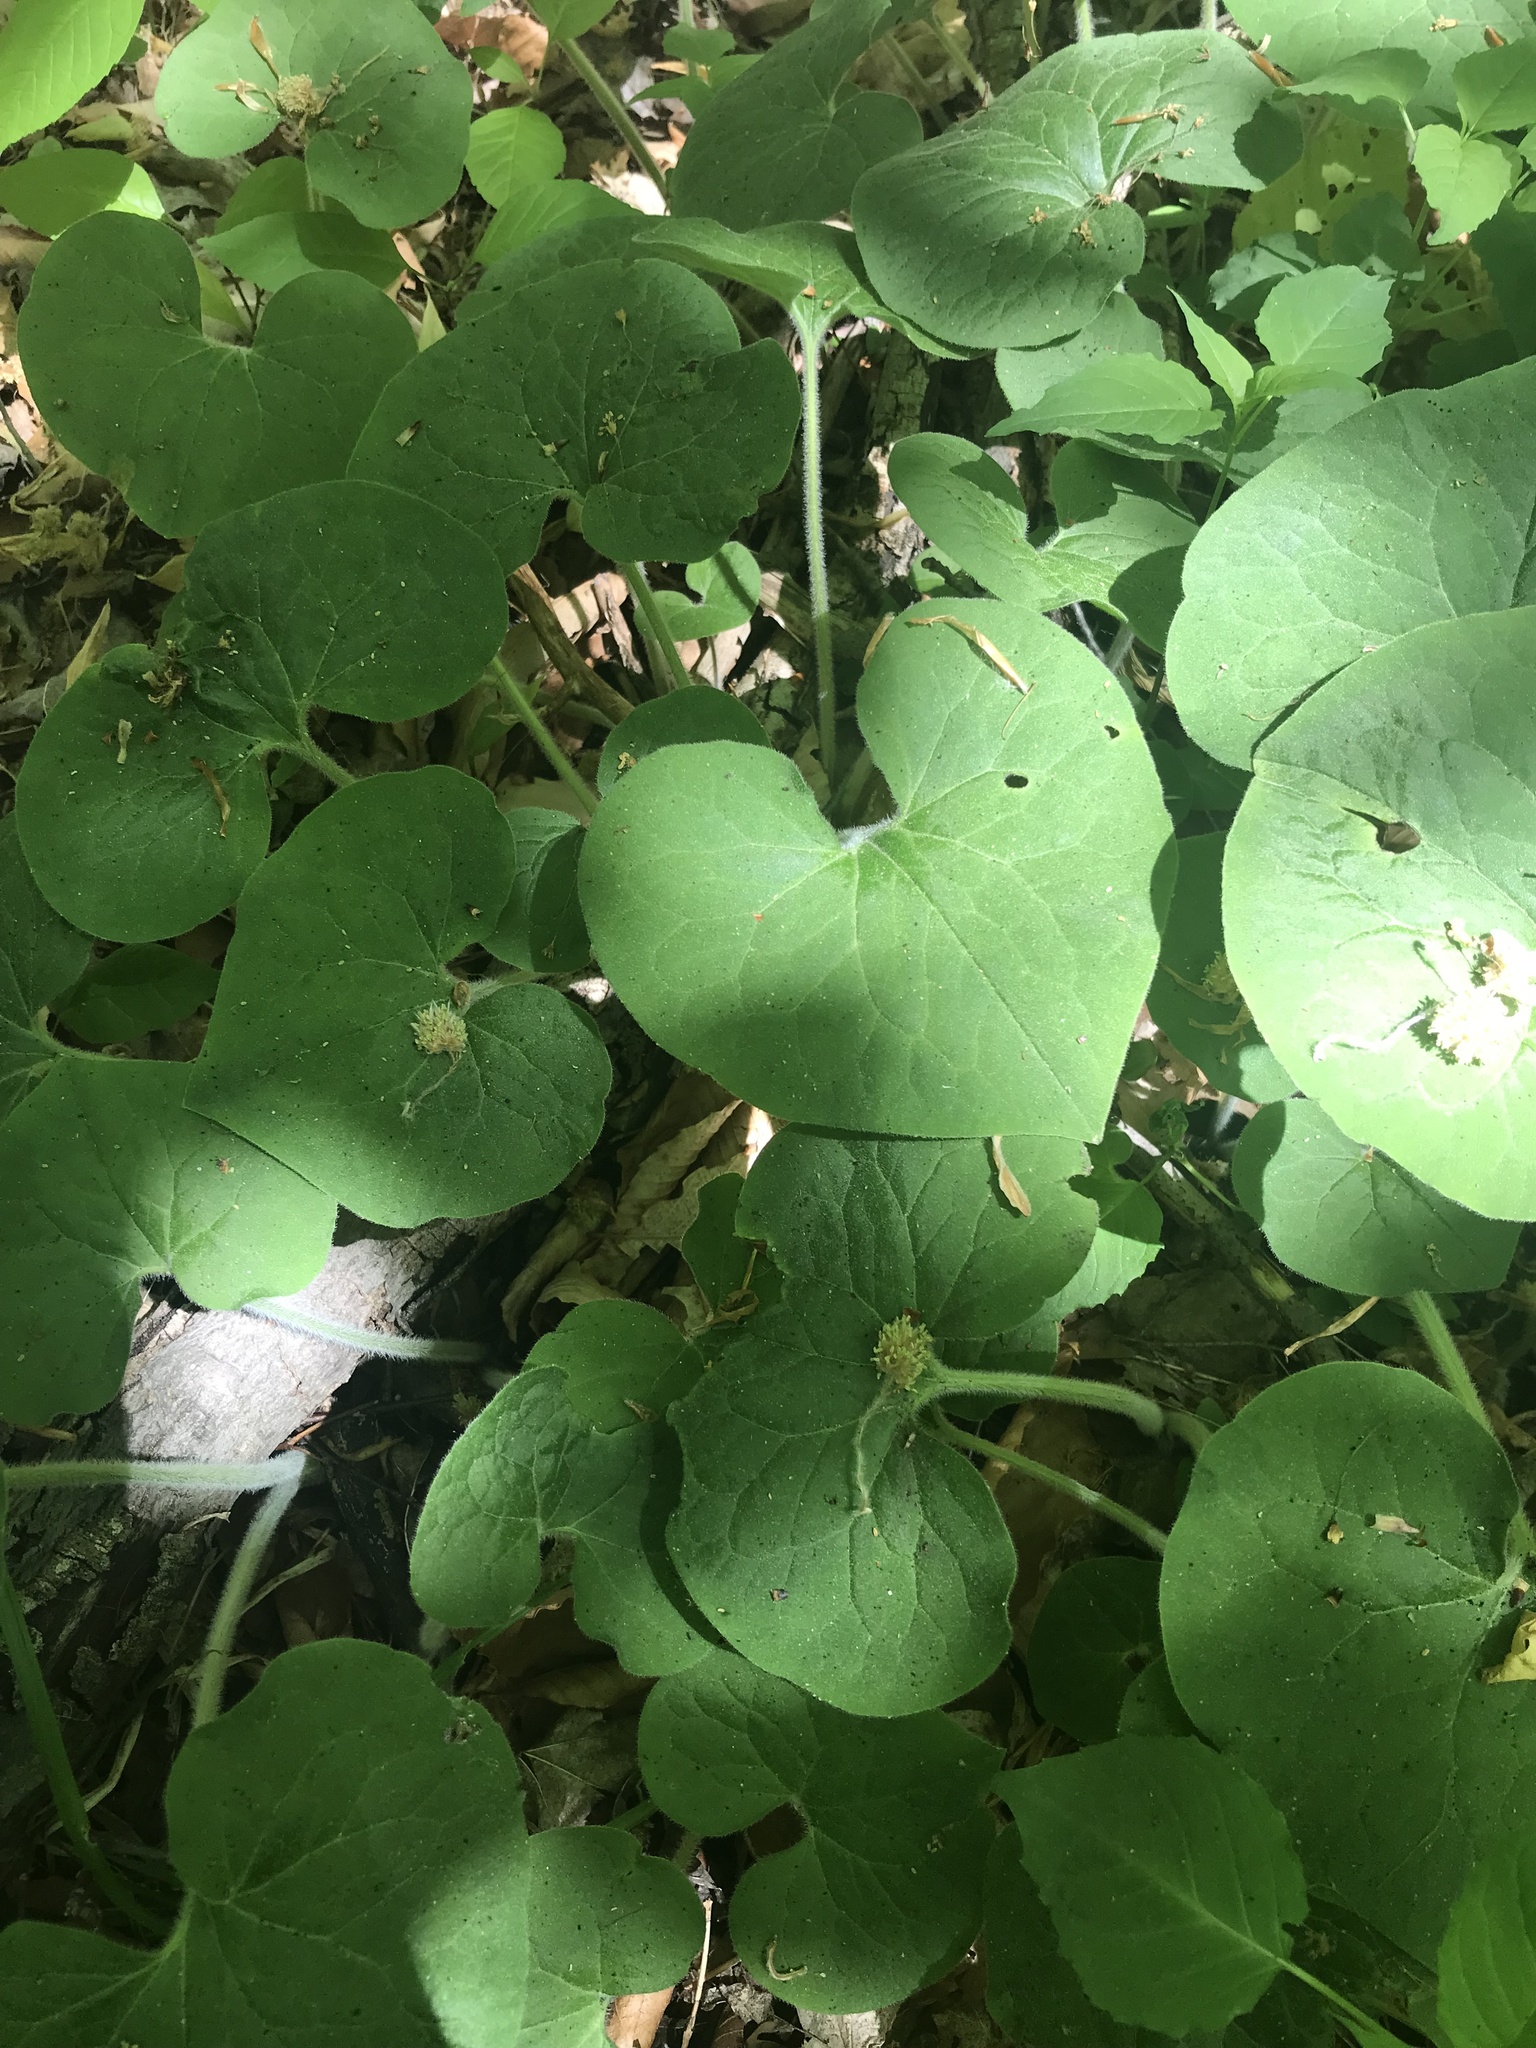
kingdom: Plantae
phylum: Tracheophyta
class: Magnoliopsida
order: Piperales
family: Aristolochiaceae
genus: Asarum
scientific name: Asarum canadense
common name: Wild ginger
